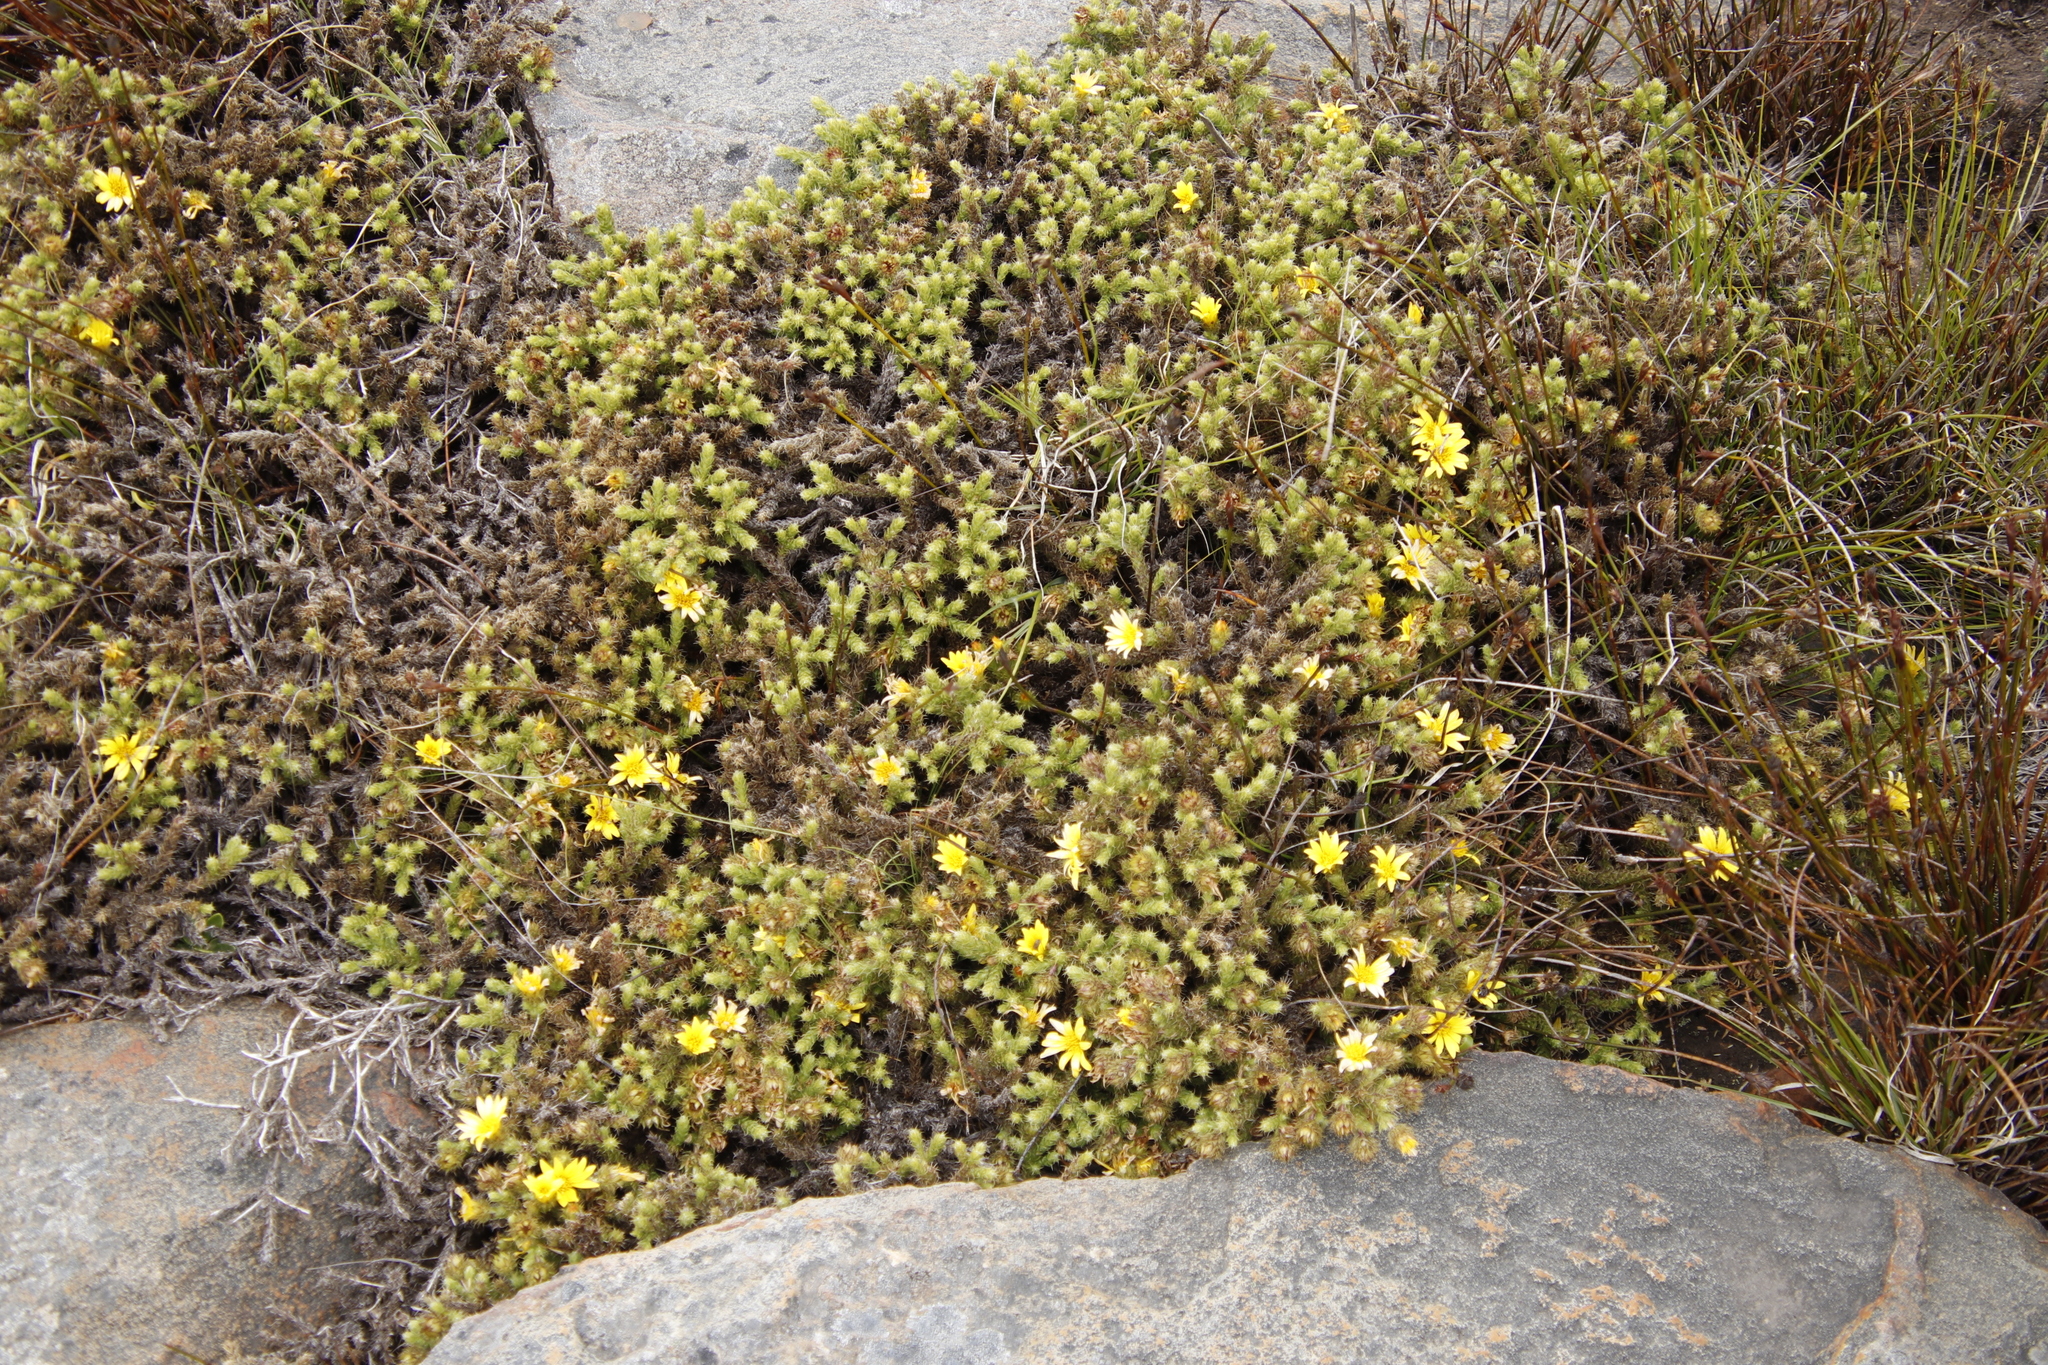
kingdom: Plantae
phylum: Tracheophyta
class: Magnoliopsida
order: Asterales
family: Asteraceae
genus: Cullumia
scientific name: Cullumia reticulata
